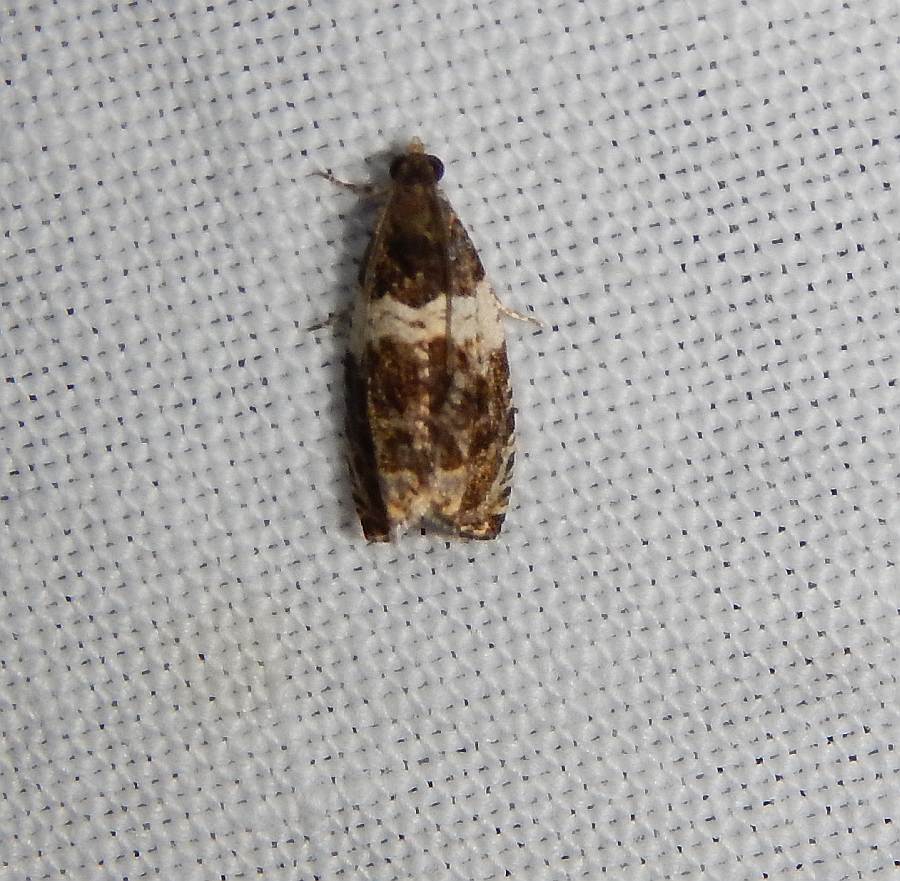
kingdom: Animalia
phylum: Arthropoda
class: Insecta
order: Lepidoptera
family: Tortricidae
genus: Olethreutes
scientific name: Olethreutes fasciatana
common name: Banded olethreutes moth
